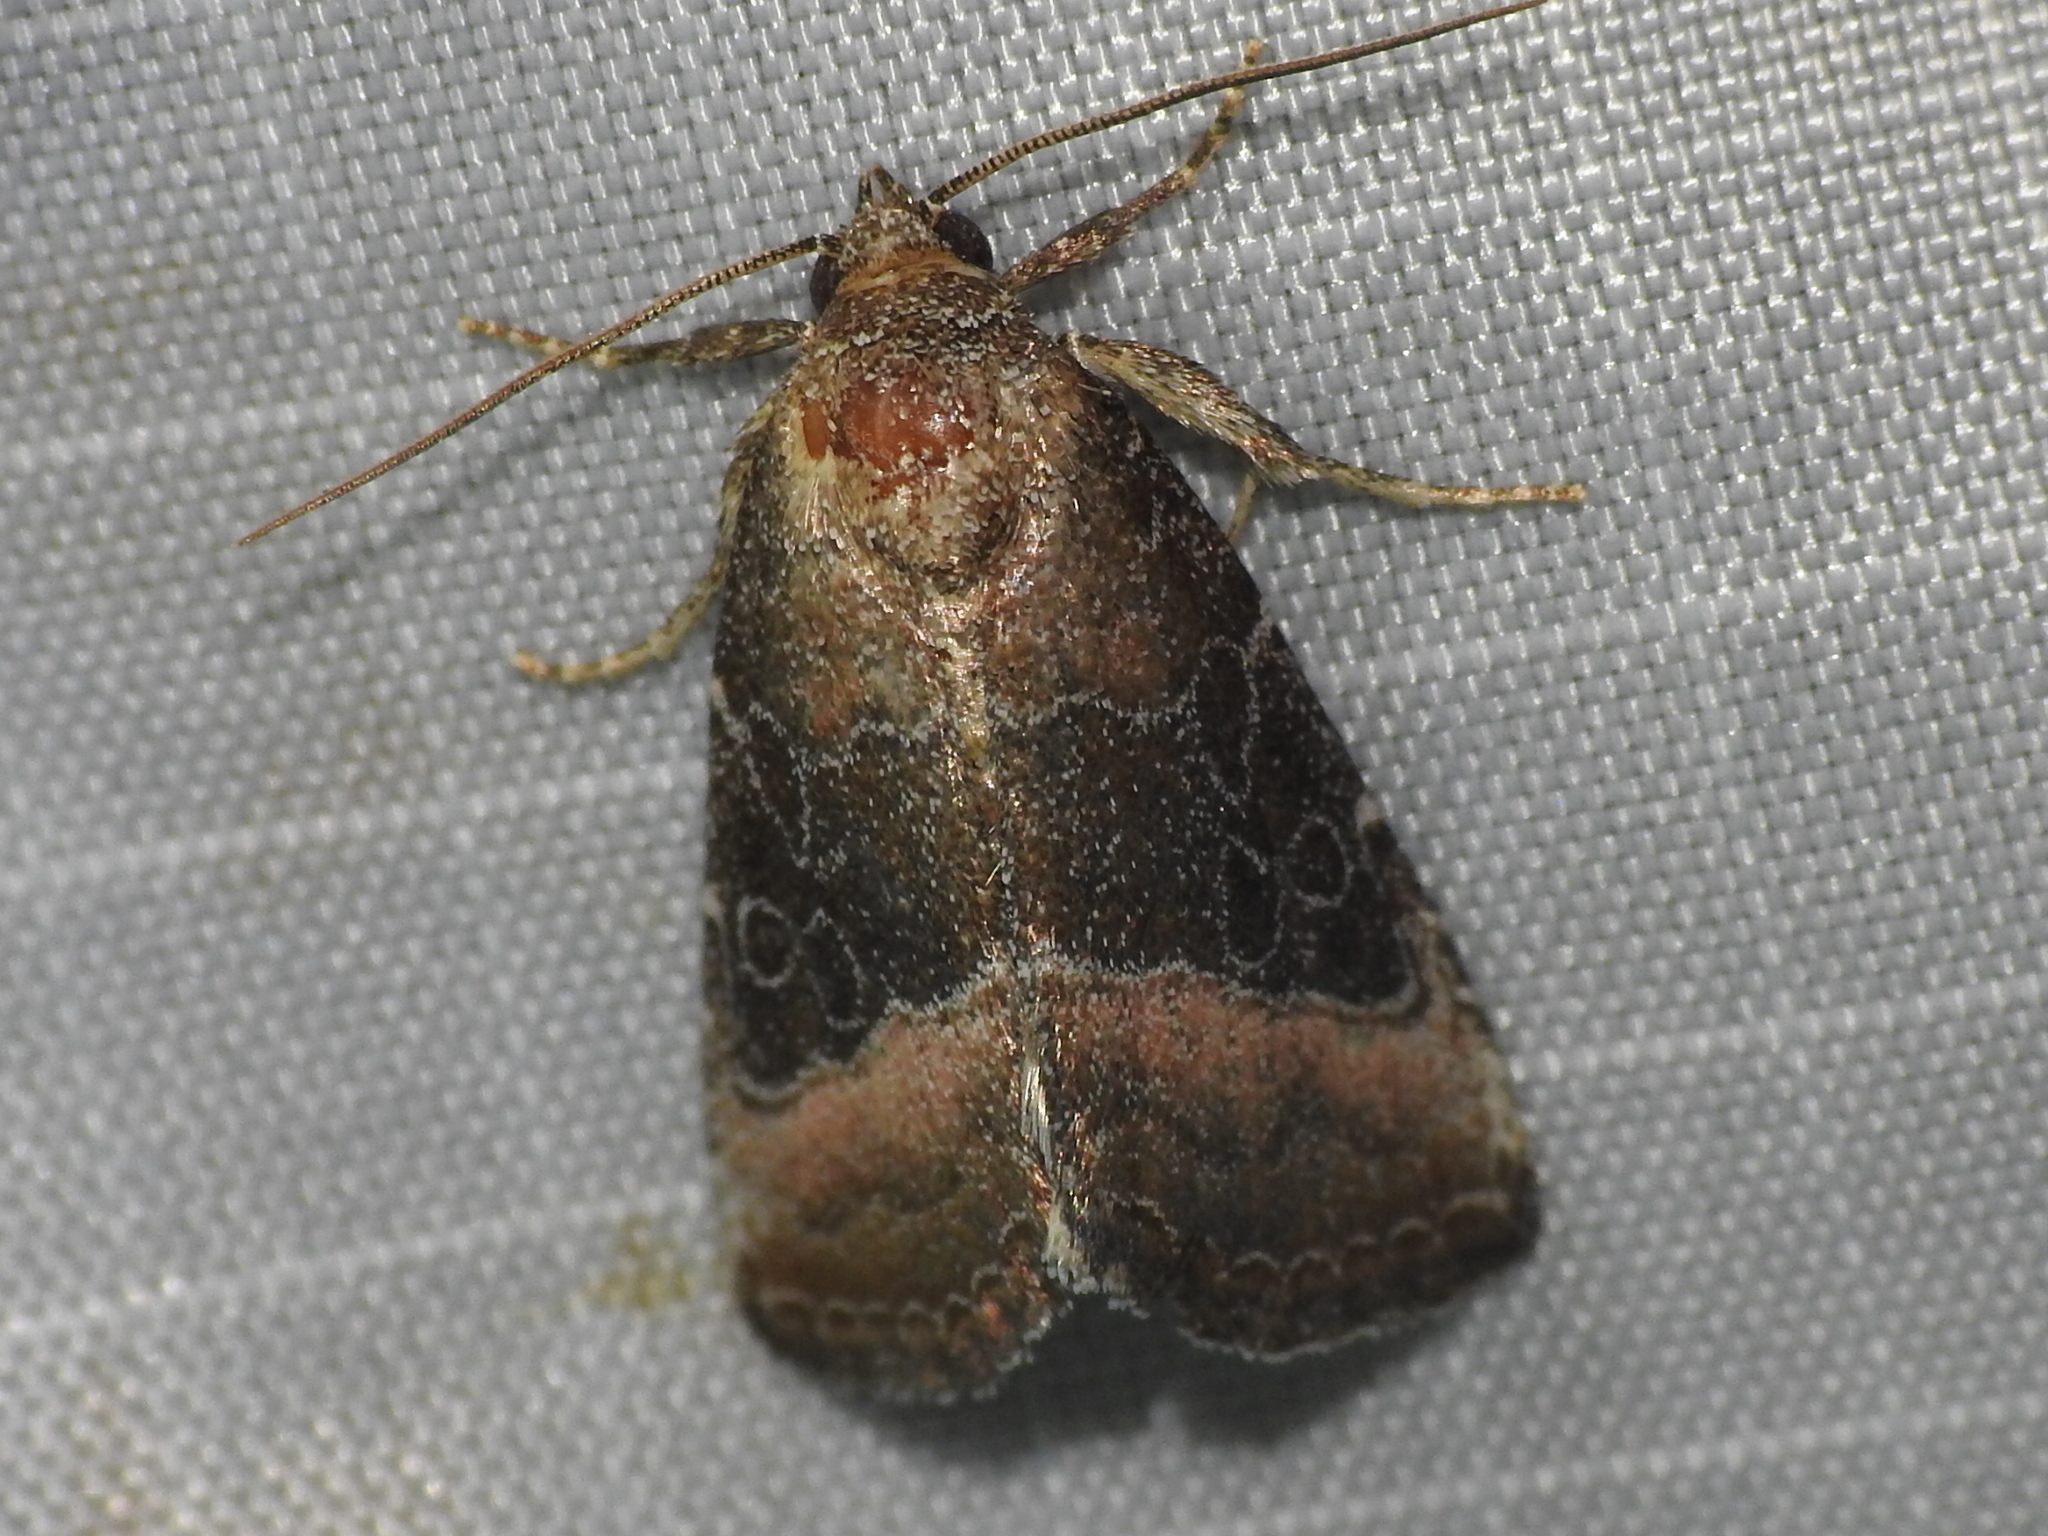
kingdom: Animalia
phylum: Arthropoda
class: Insecta
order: Lepidoptera
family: Noctuidae
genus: Ogdoconta
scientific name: Ogdoconta cinereola
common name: Common pinkband
